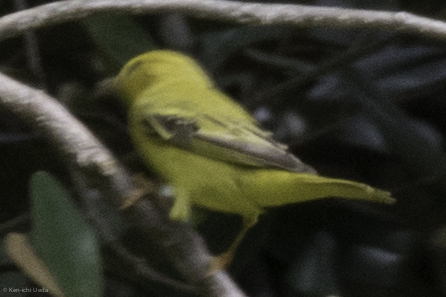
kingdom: Animalia
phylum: Chordata
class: Aves
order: Passeriformes
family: Parulidae
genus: Setophaga
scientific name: Setophaga petechia
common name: Yellow warbler
